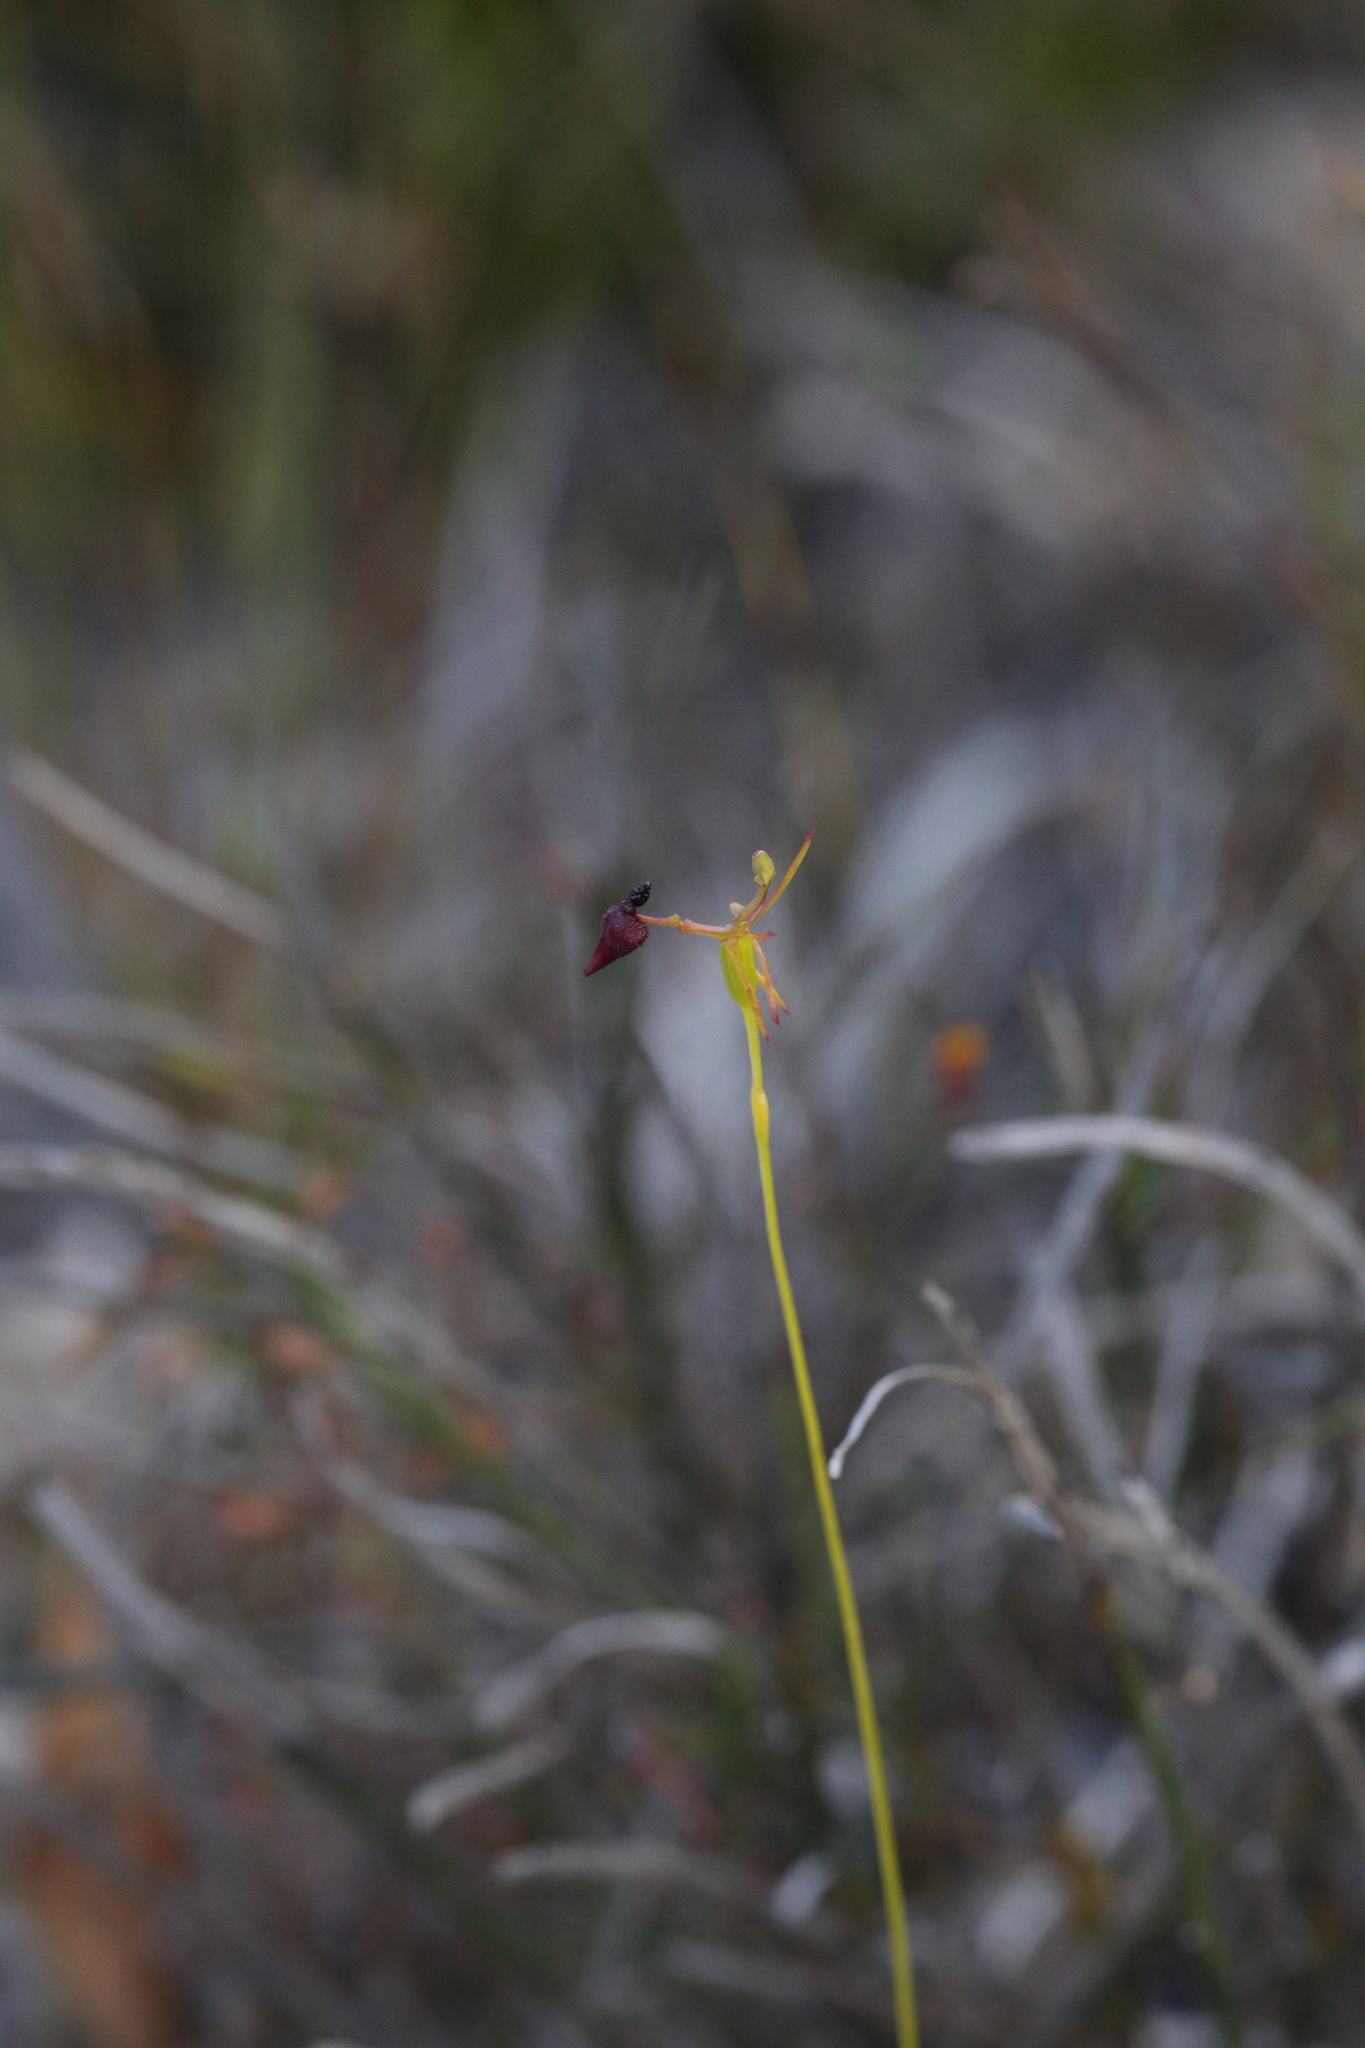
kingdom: Plantae
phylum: Tracheophyta
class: Liliopsida
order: Asparagales
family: Orchidaceae
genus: Drakaea
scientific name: Drakaea glyptodon
